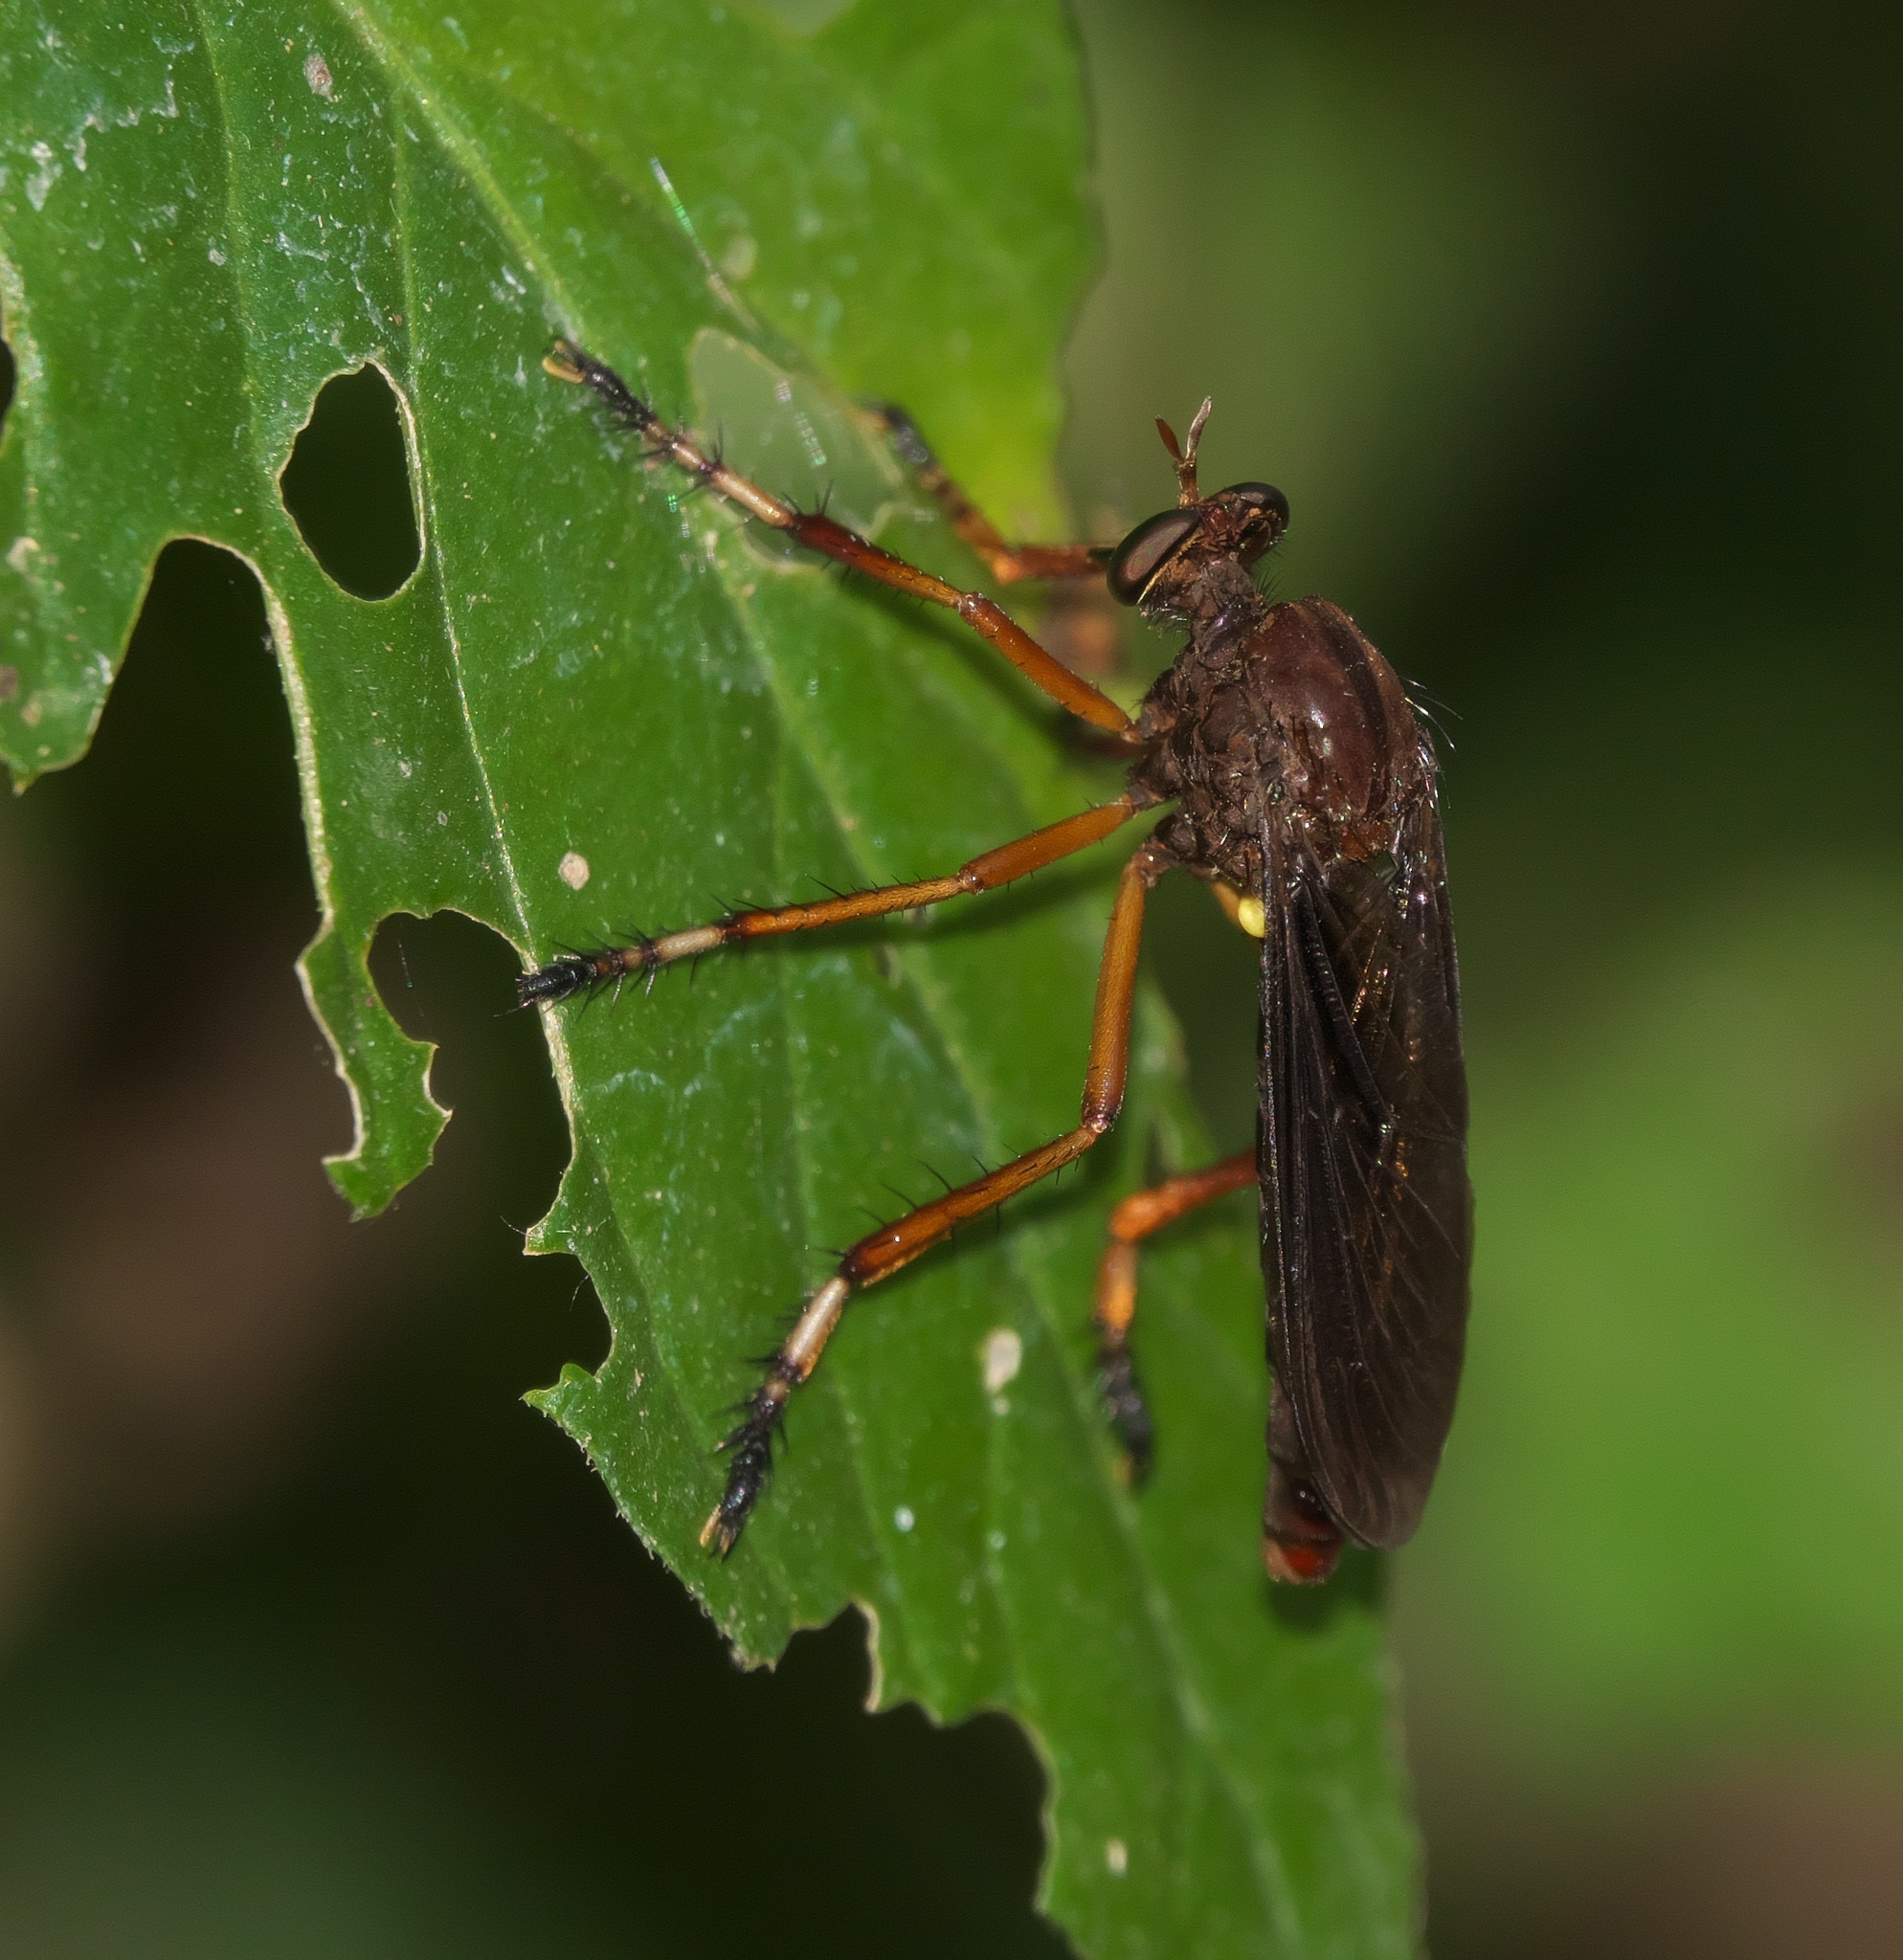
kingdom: Animalia
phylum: Arthropoda
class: Insecta
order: Diptera
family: Asilidae
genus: Diogmites
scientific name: Diogmites platypterus
